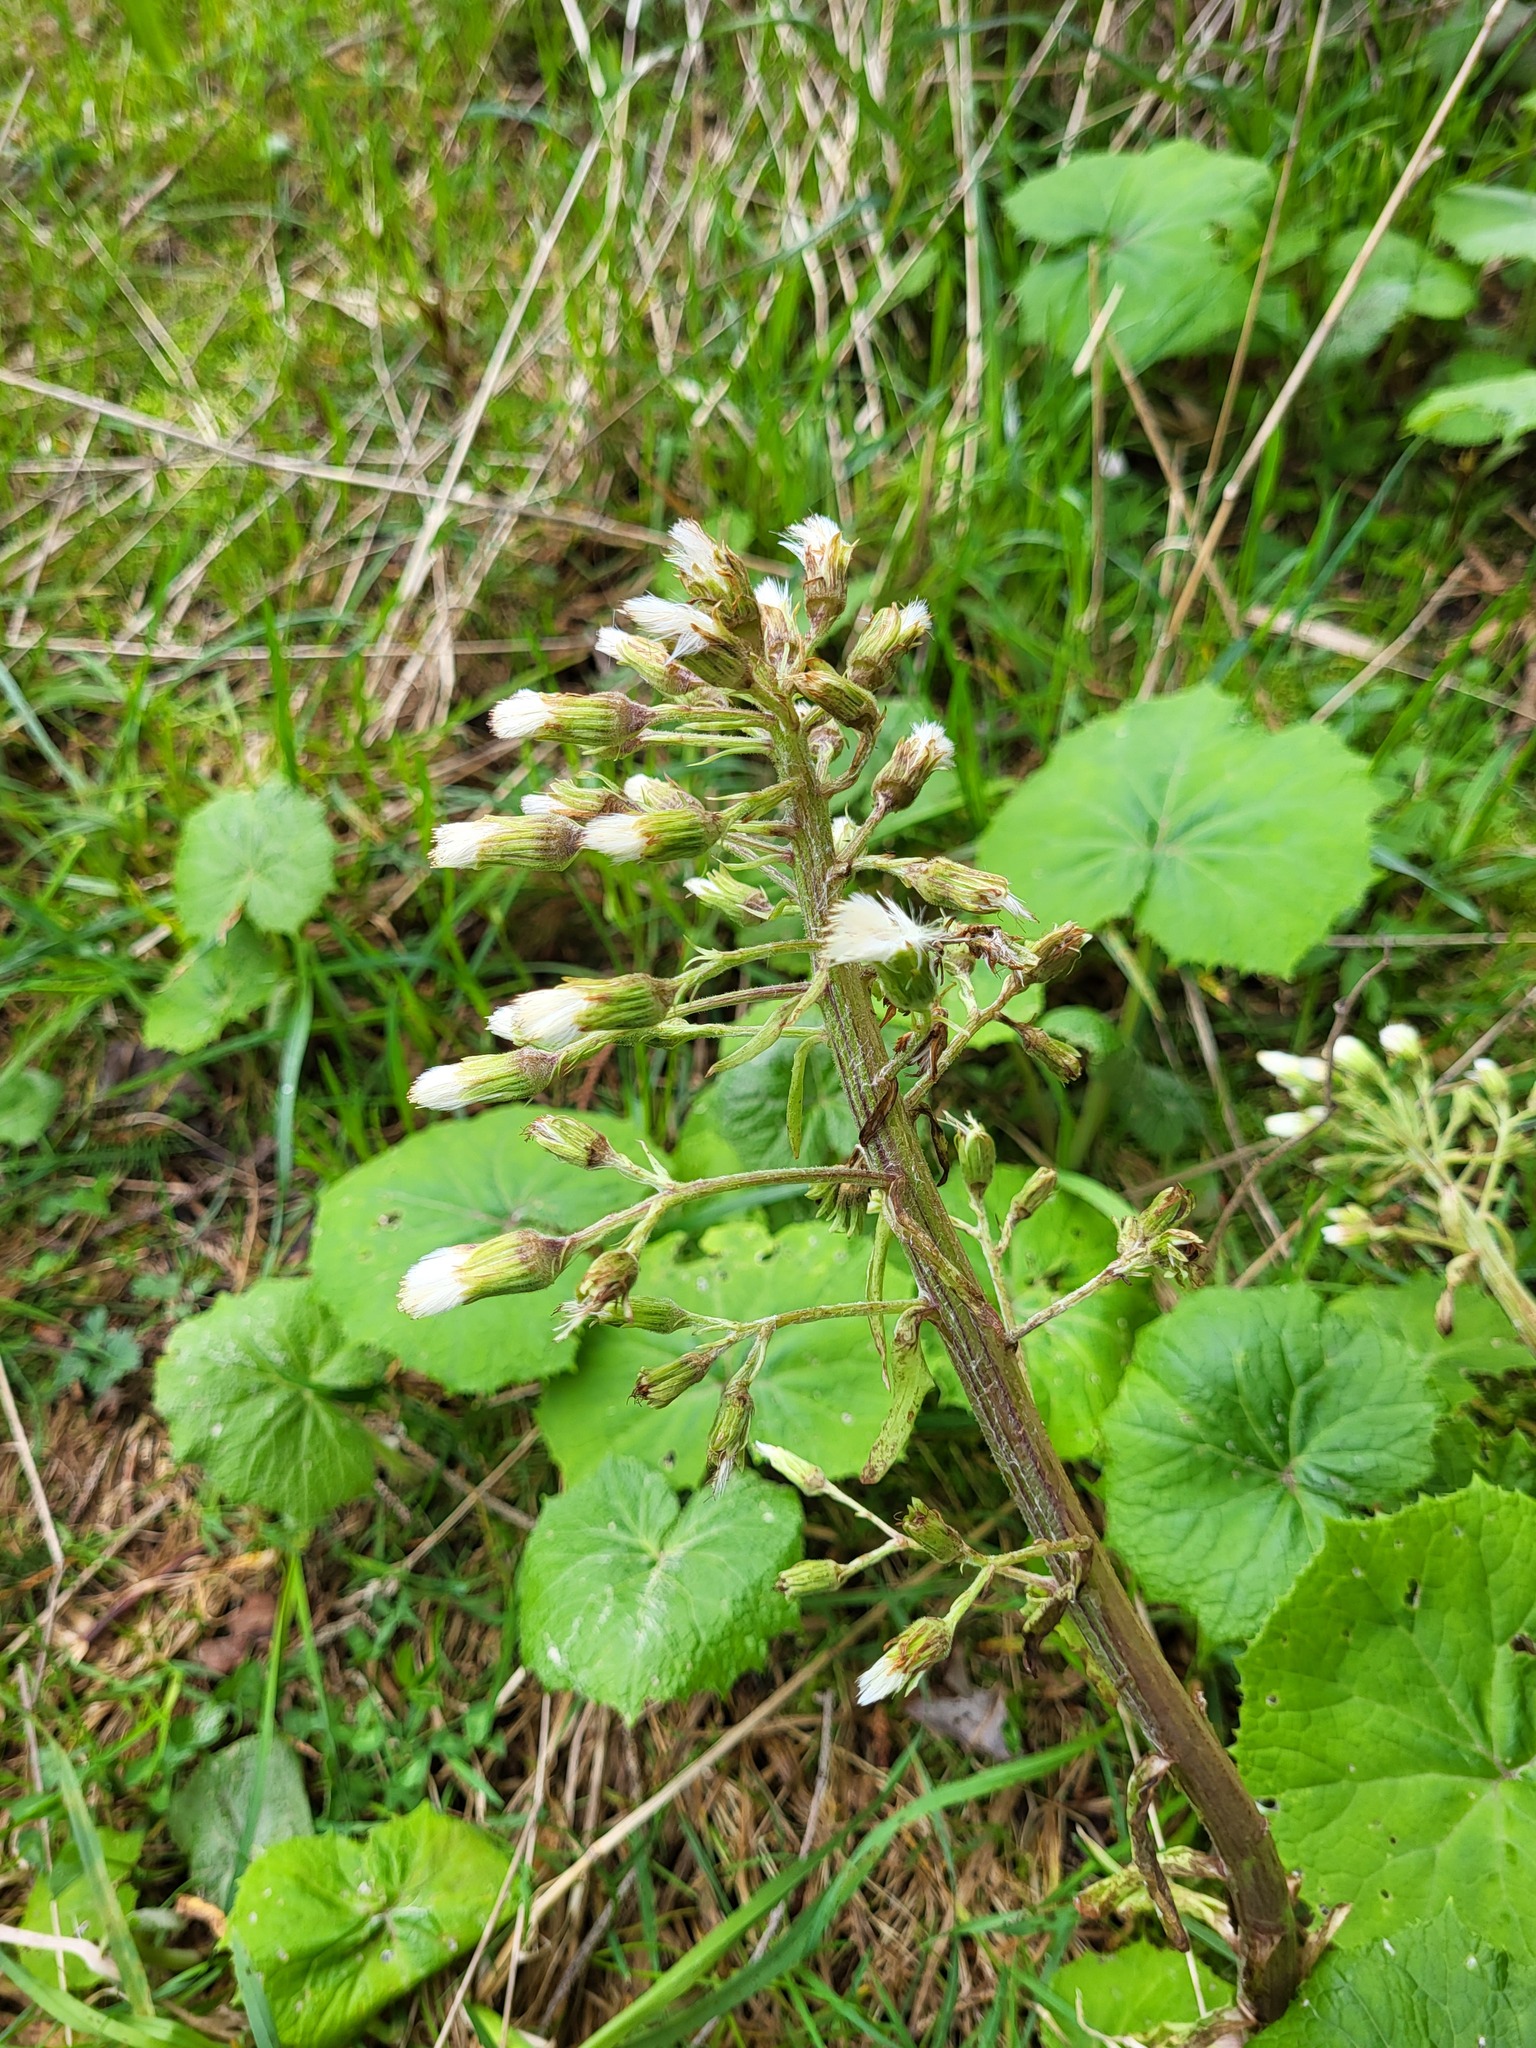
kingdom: Plantae
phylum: Tracheophyta
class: Magnoliopsida
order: Asterales
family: Asteraceae
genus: Petasites
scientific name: Petasites albus
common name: White butterbur
